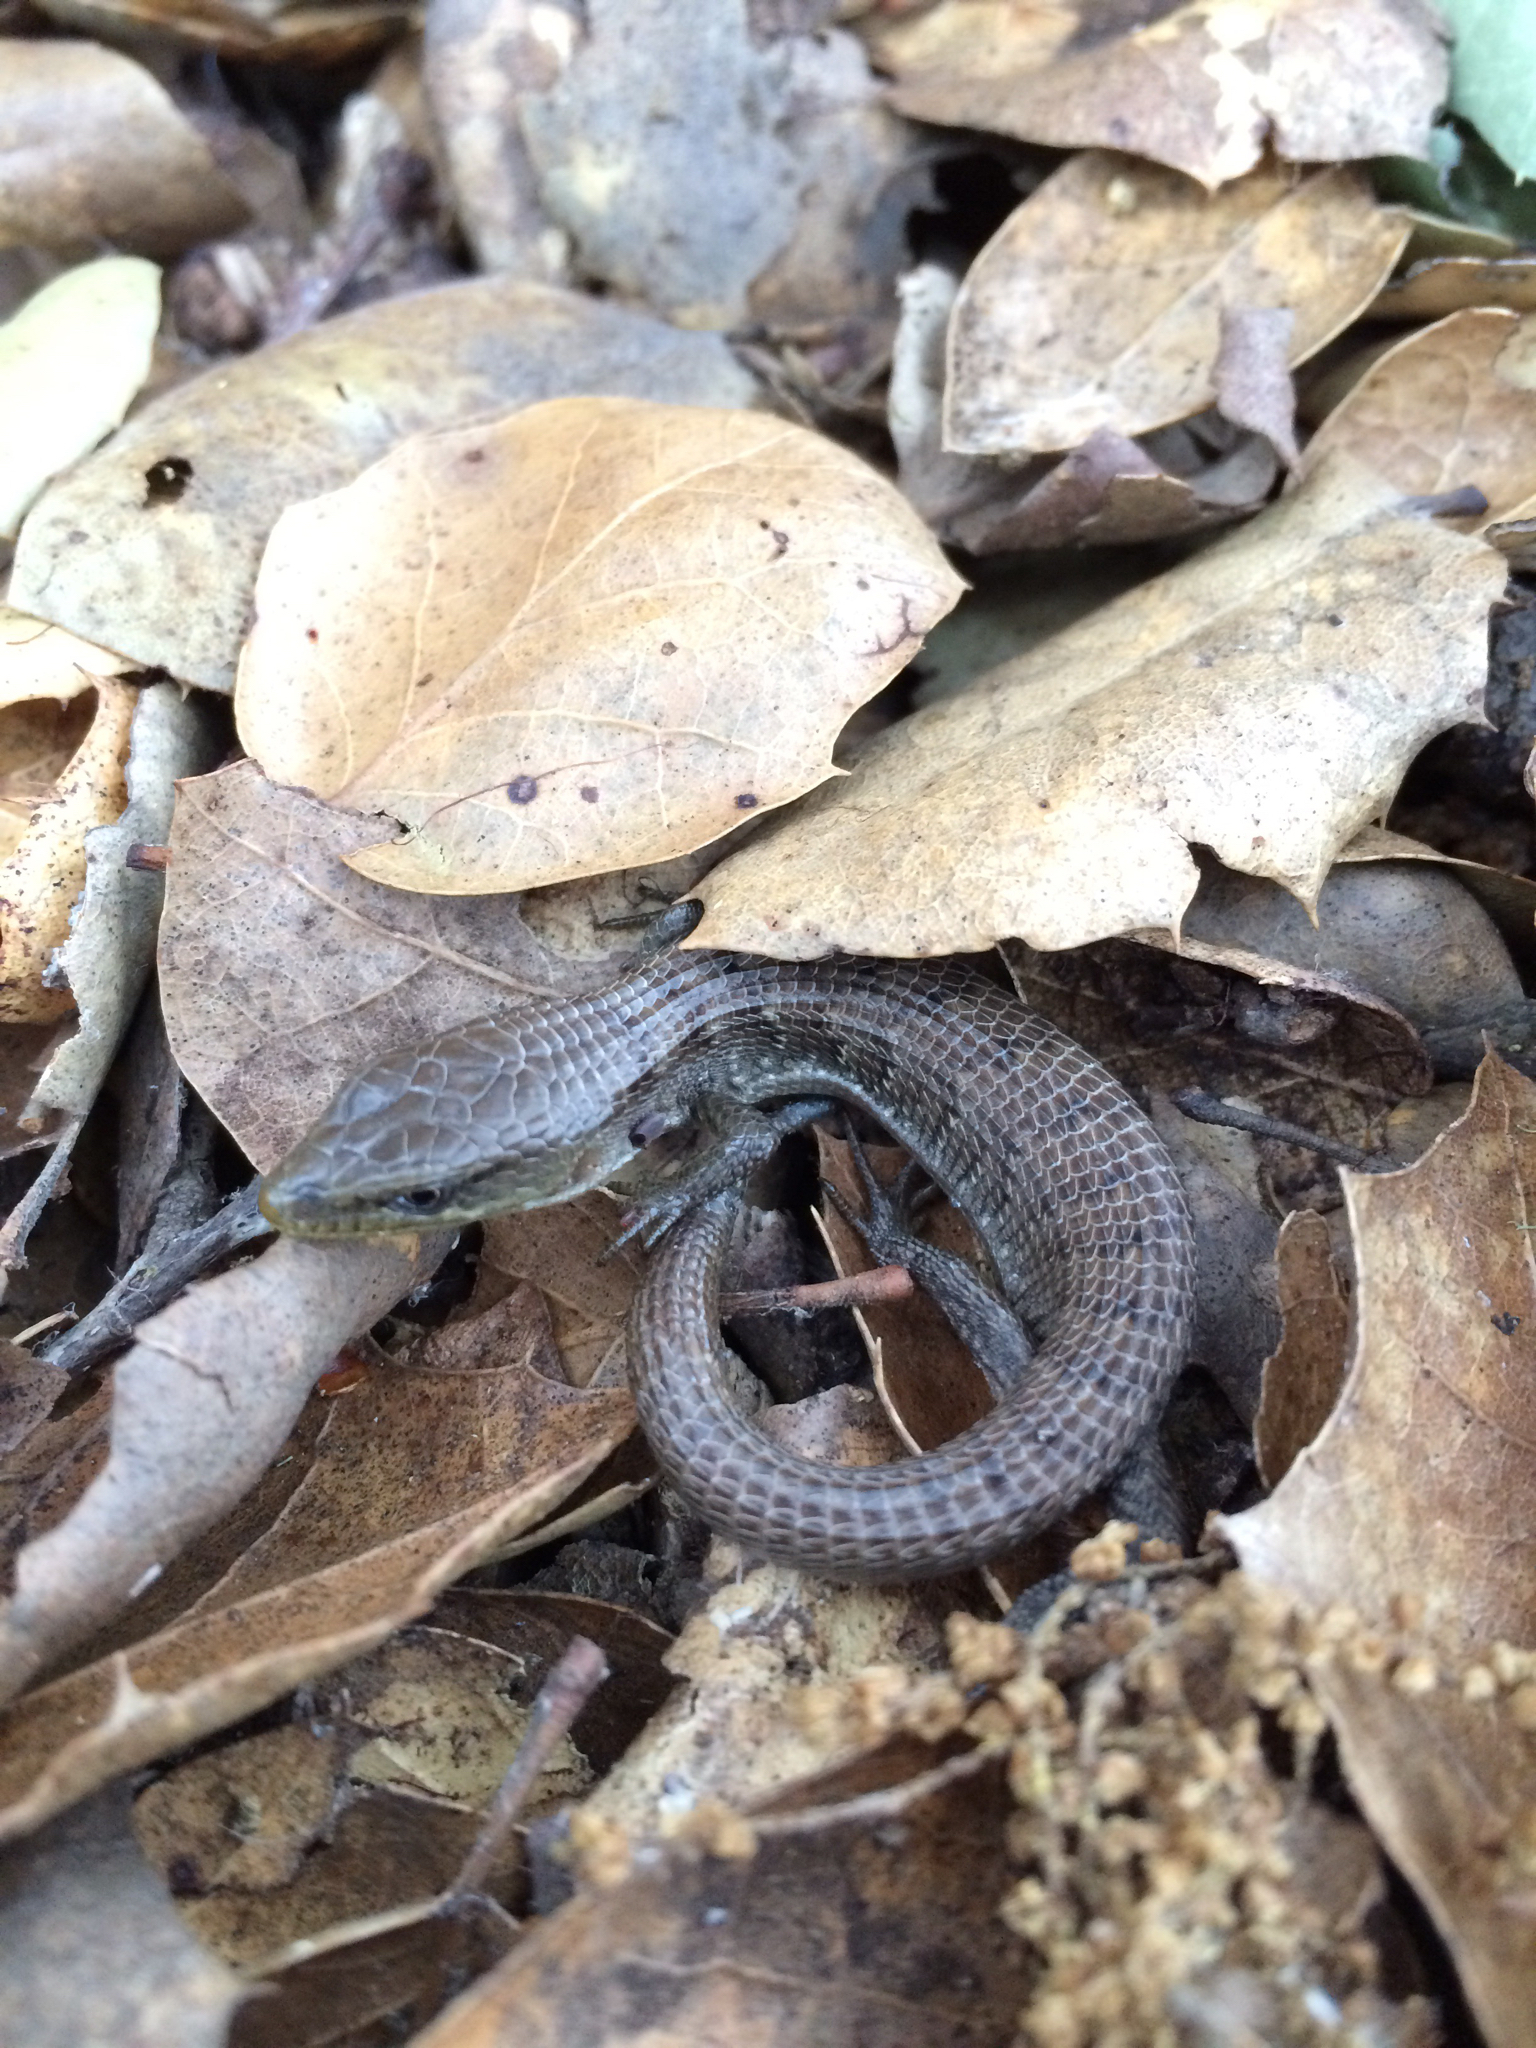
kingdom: Animalia
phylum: Chordata
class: Squamata
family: Anguidae
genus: Elgaria
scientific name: Elgaria multicarinata
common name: Southern alligator lizard
